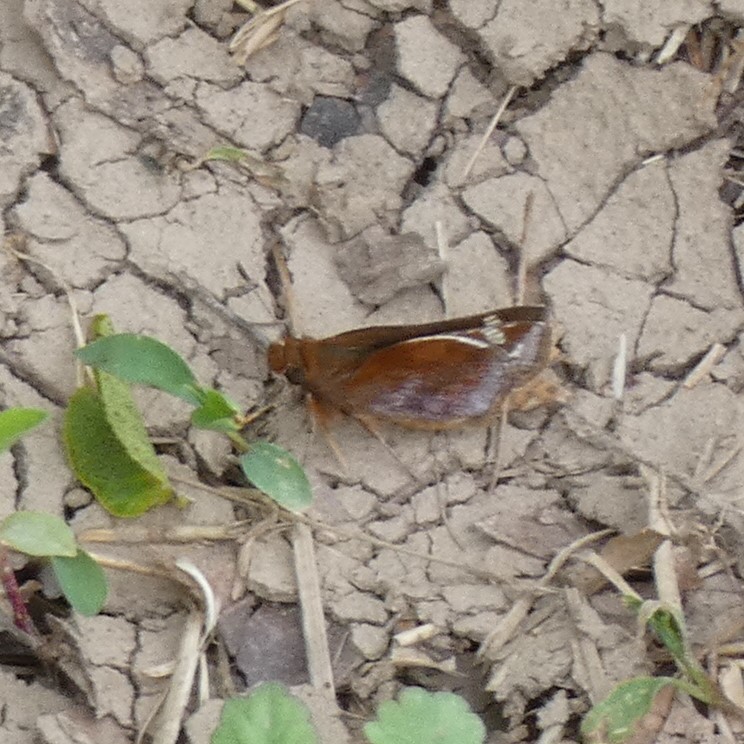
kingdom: Animalia
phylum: Arthropoda
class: Insecta
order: Lepidoptera
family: Hesperiidae
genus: Lon
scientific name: Lon zabulon
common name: Zabulon skipper
